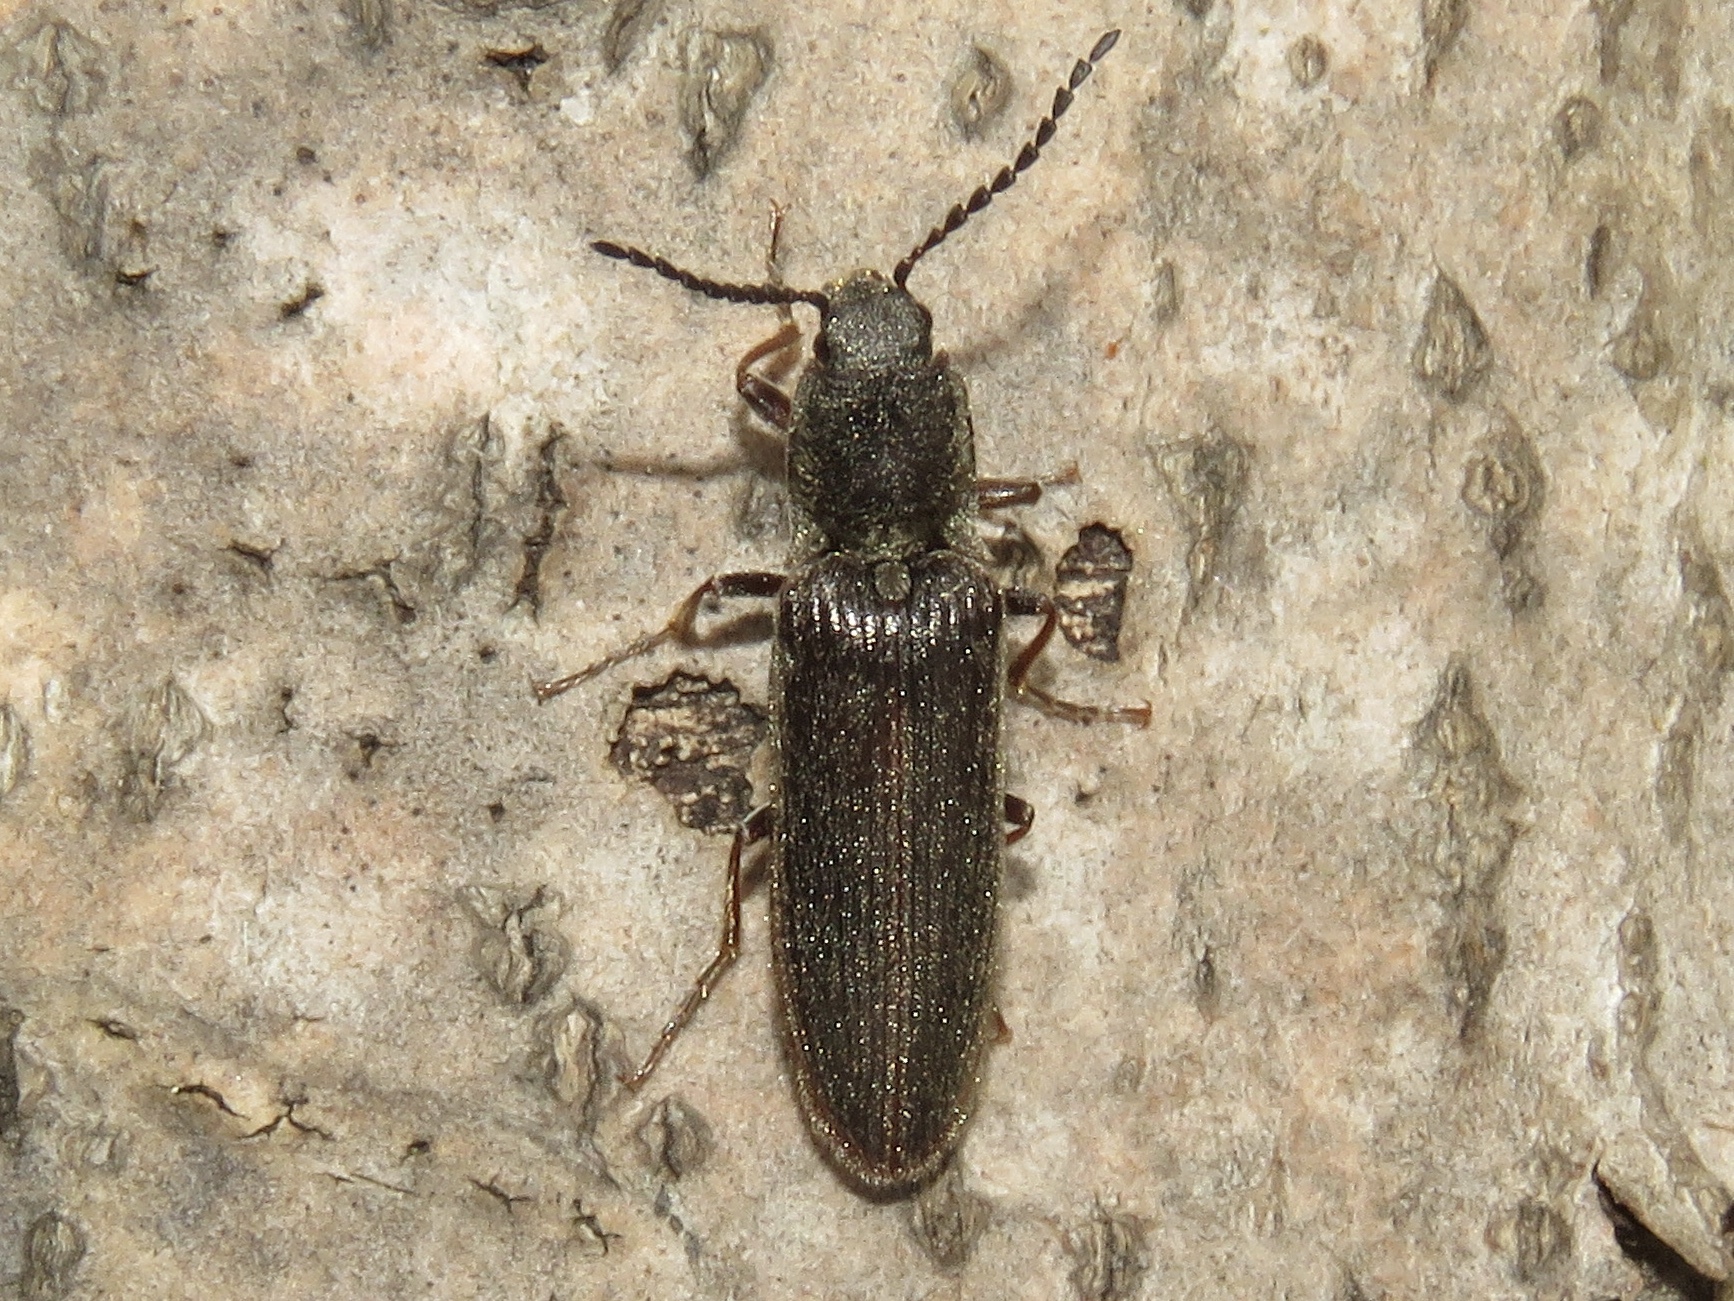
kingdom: Animalia
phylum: Arthropoda
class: Insecta
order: Coleoptera
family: Elateridae
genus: Sylvanelater
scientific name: Sylvanelater cylindriformis
